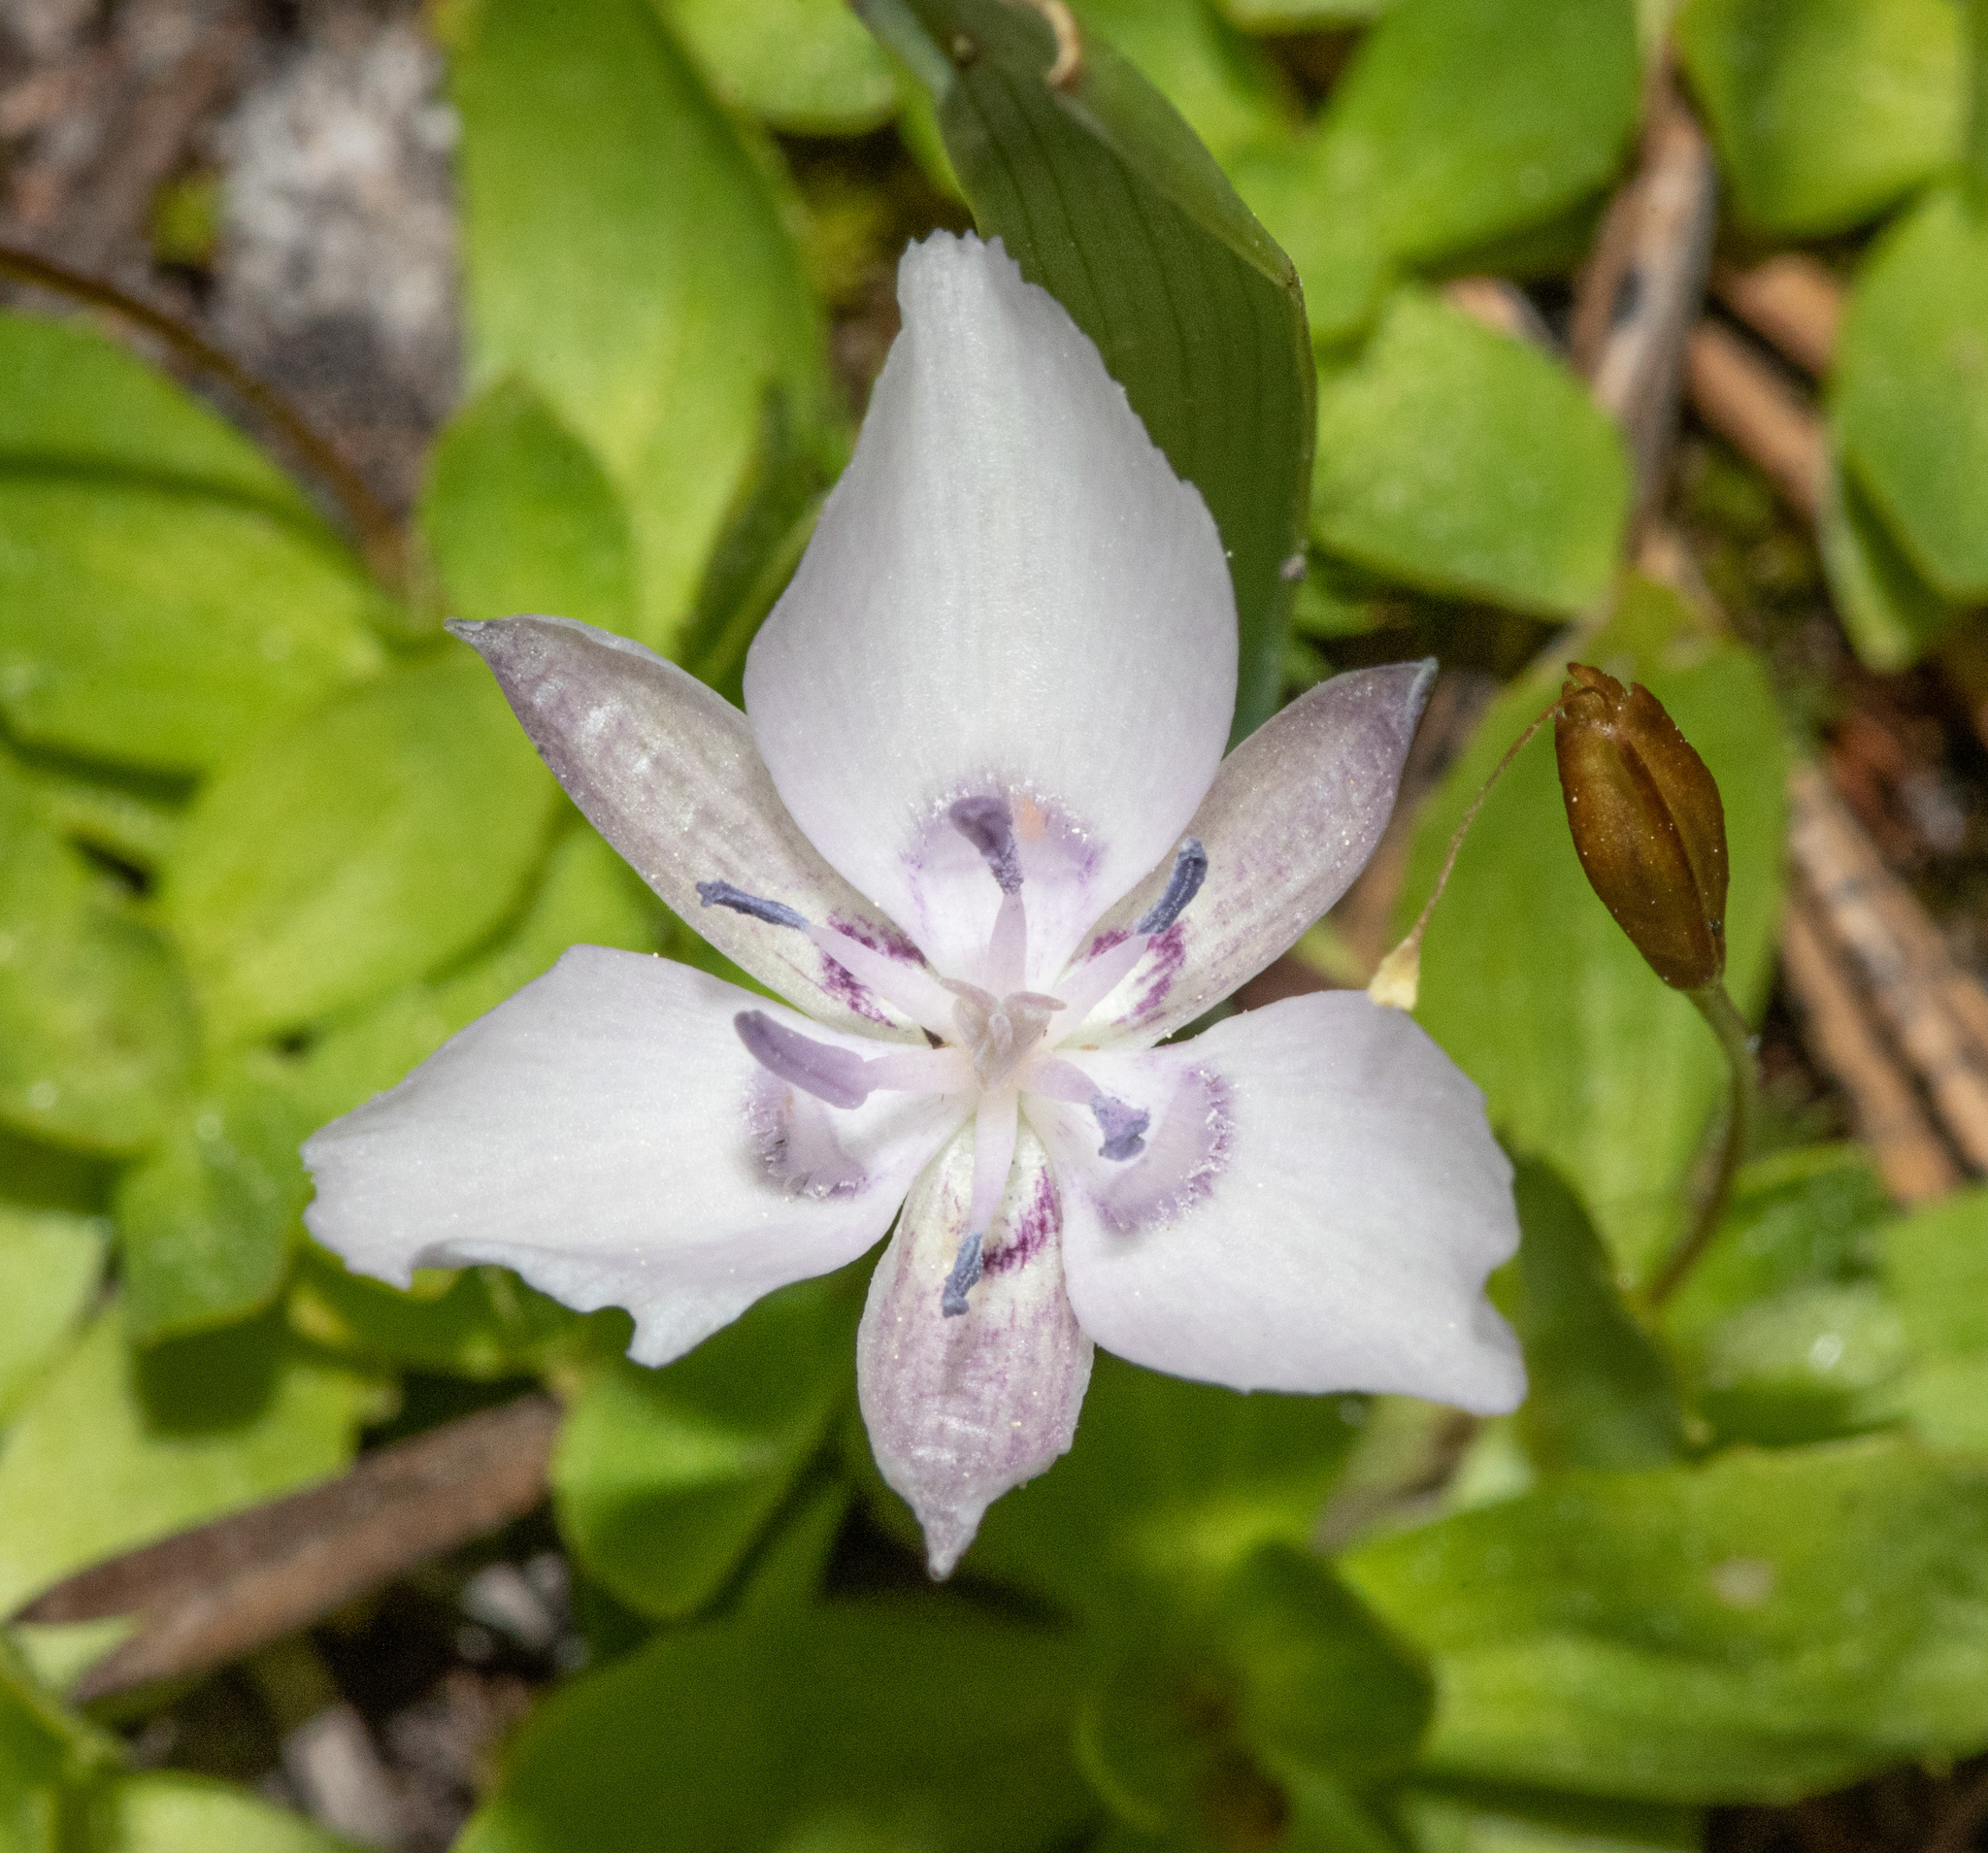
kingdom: Plantae
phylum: Tracheophyta
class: Liliopsida
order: Liliales
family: Liliaceae
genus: Calochortus
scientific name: Calochortus
